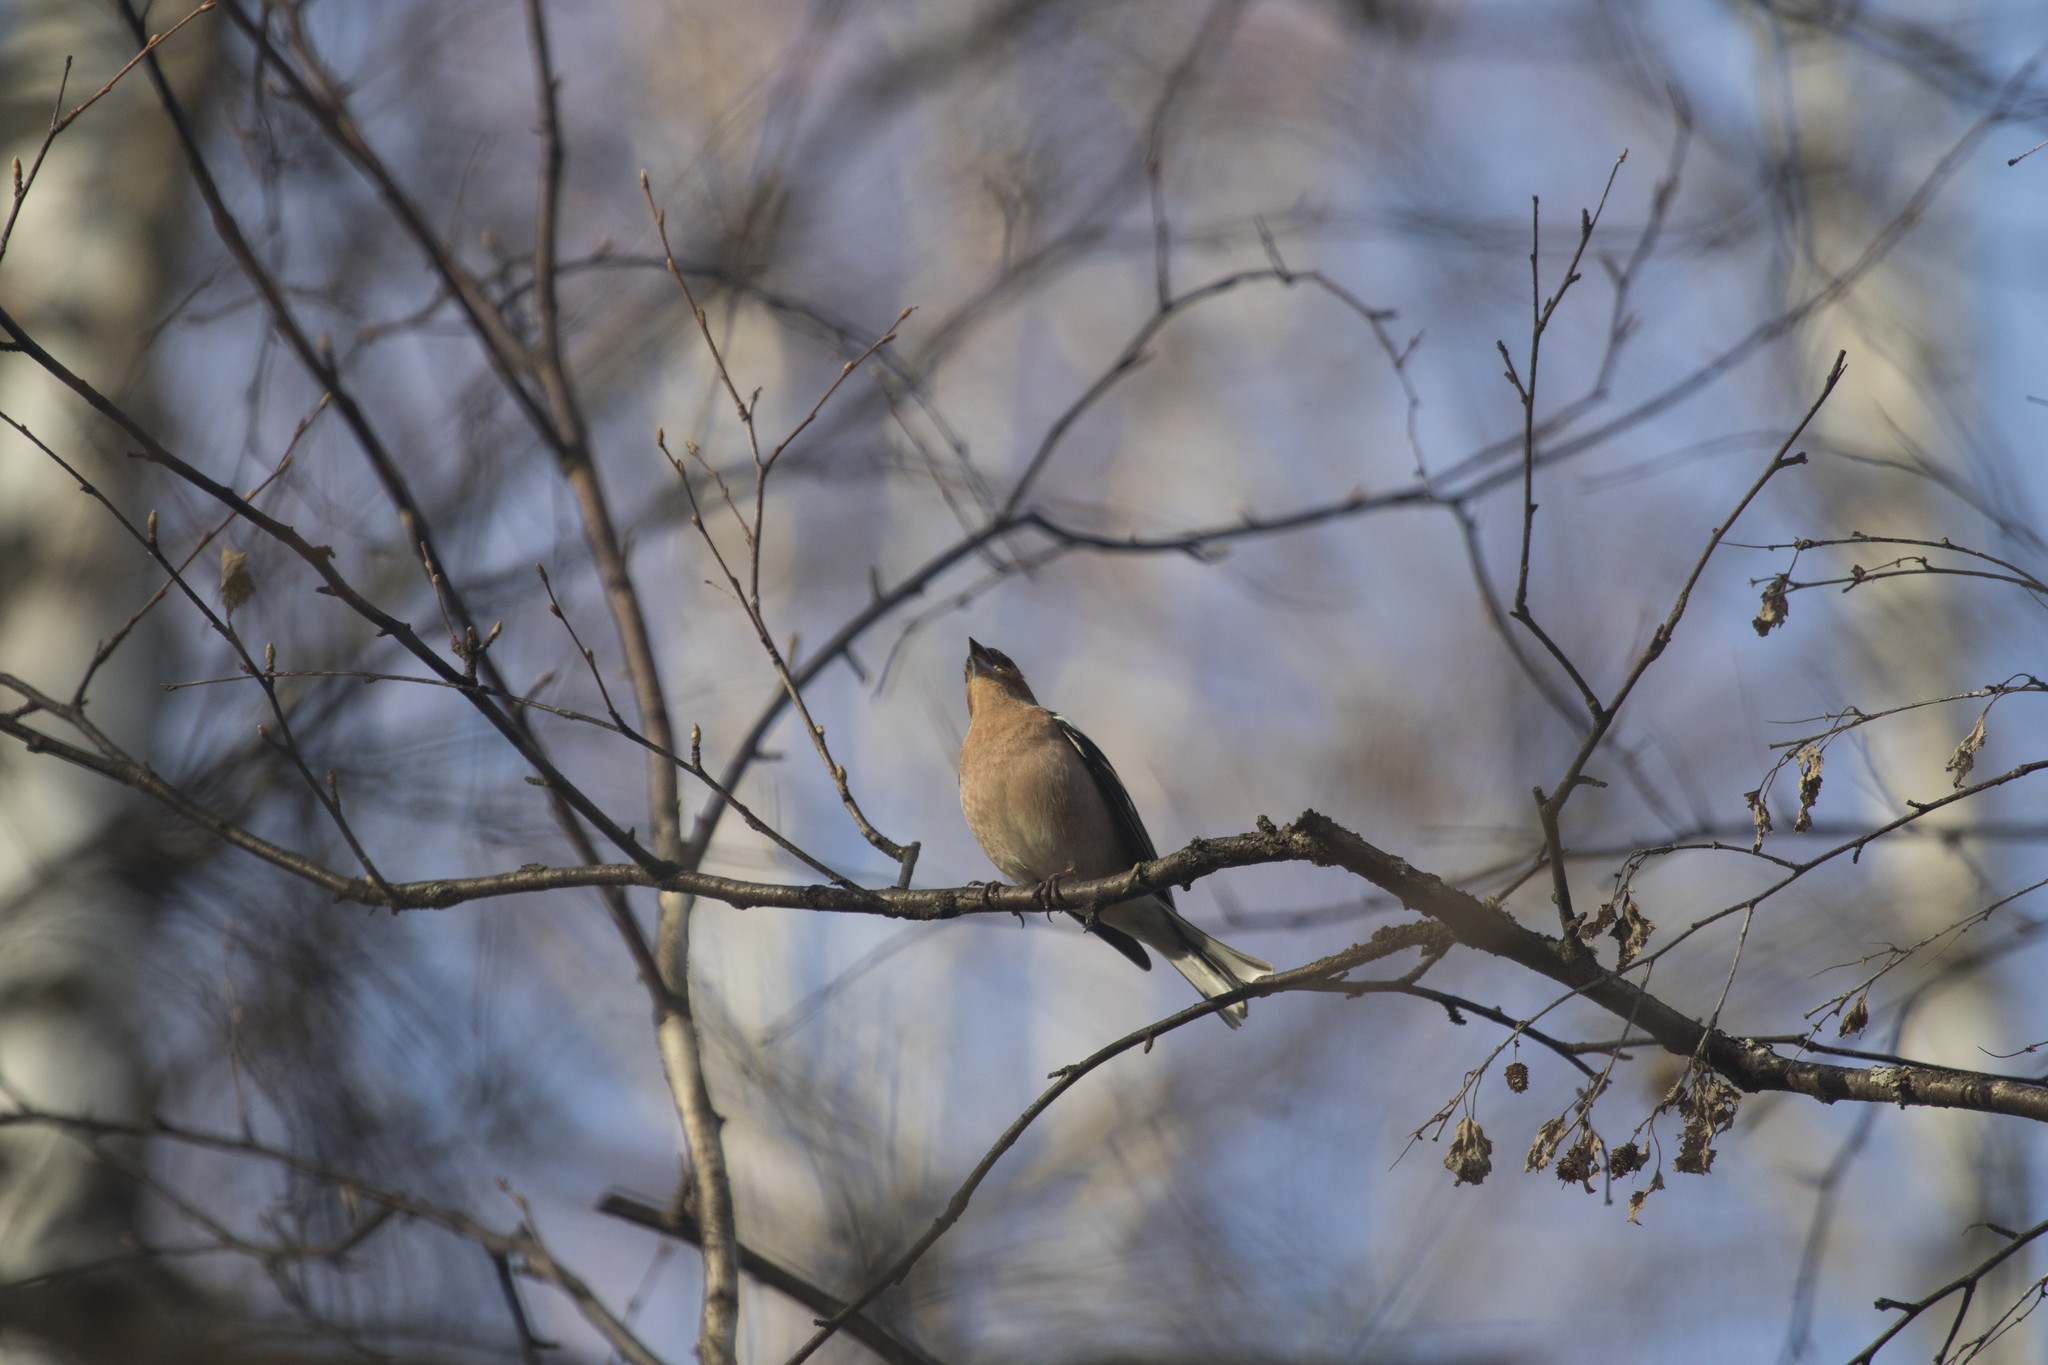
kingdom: Animalia
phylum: Chordata
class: Aves
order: Passeriformes
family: Fringillidae
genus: Fringilla
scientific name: Fringilla coelebs
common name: Common chaffinch
